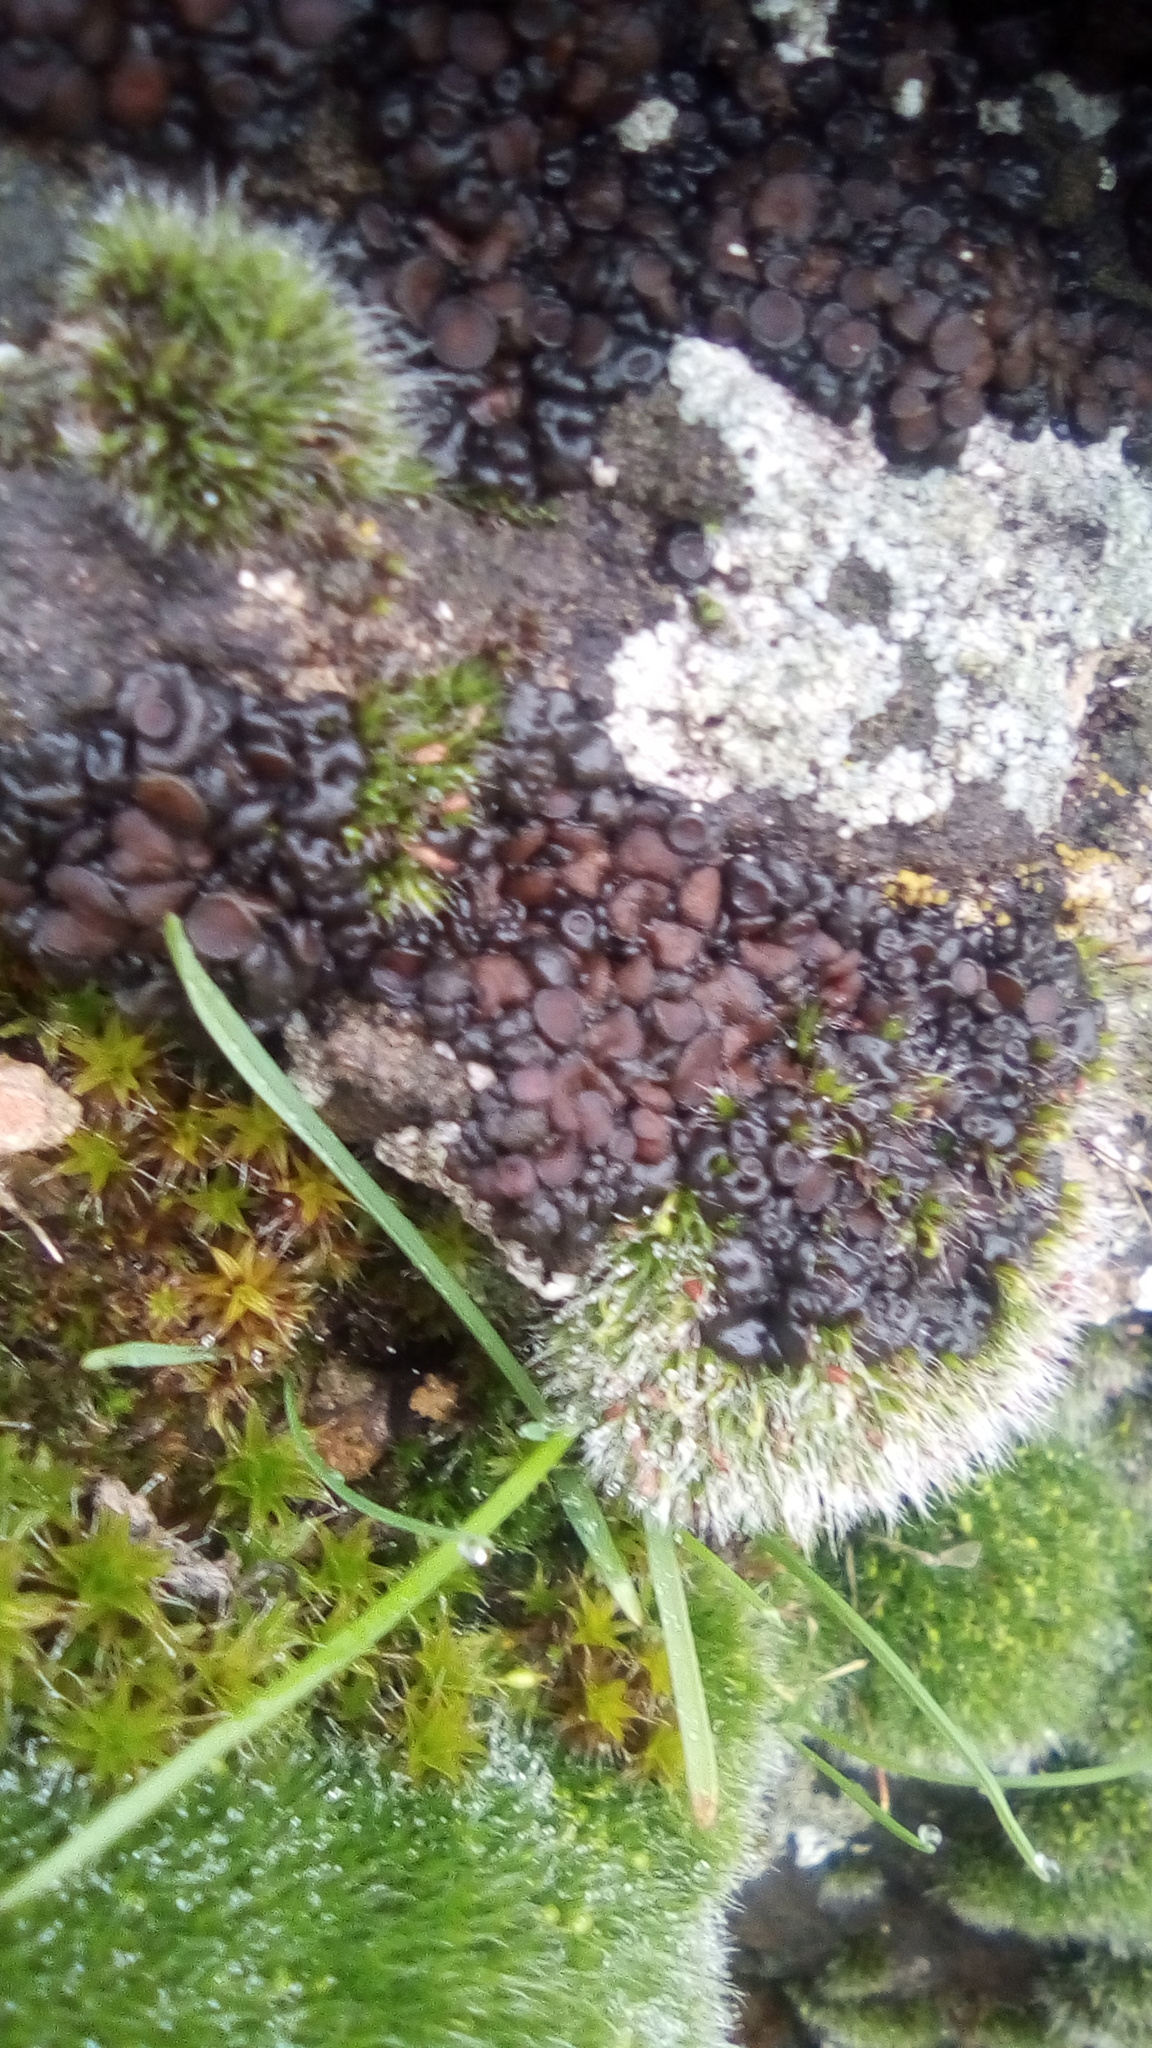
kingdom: Fungi
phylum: Ascomycota
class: Lecanoromycetes
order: Peltigerales
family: Collemataceae
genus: Enchylium
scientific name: Enchylium tenax
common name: Jelly lichen
